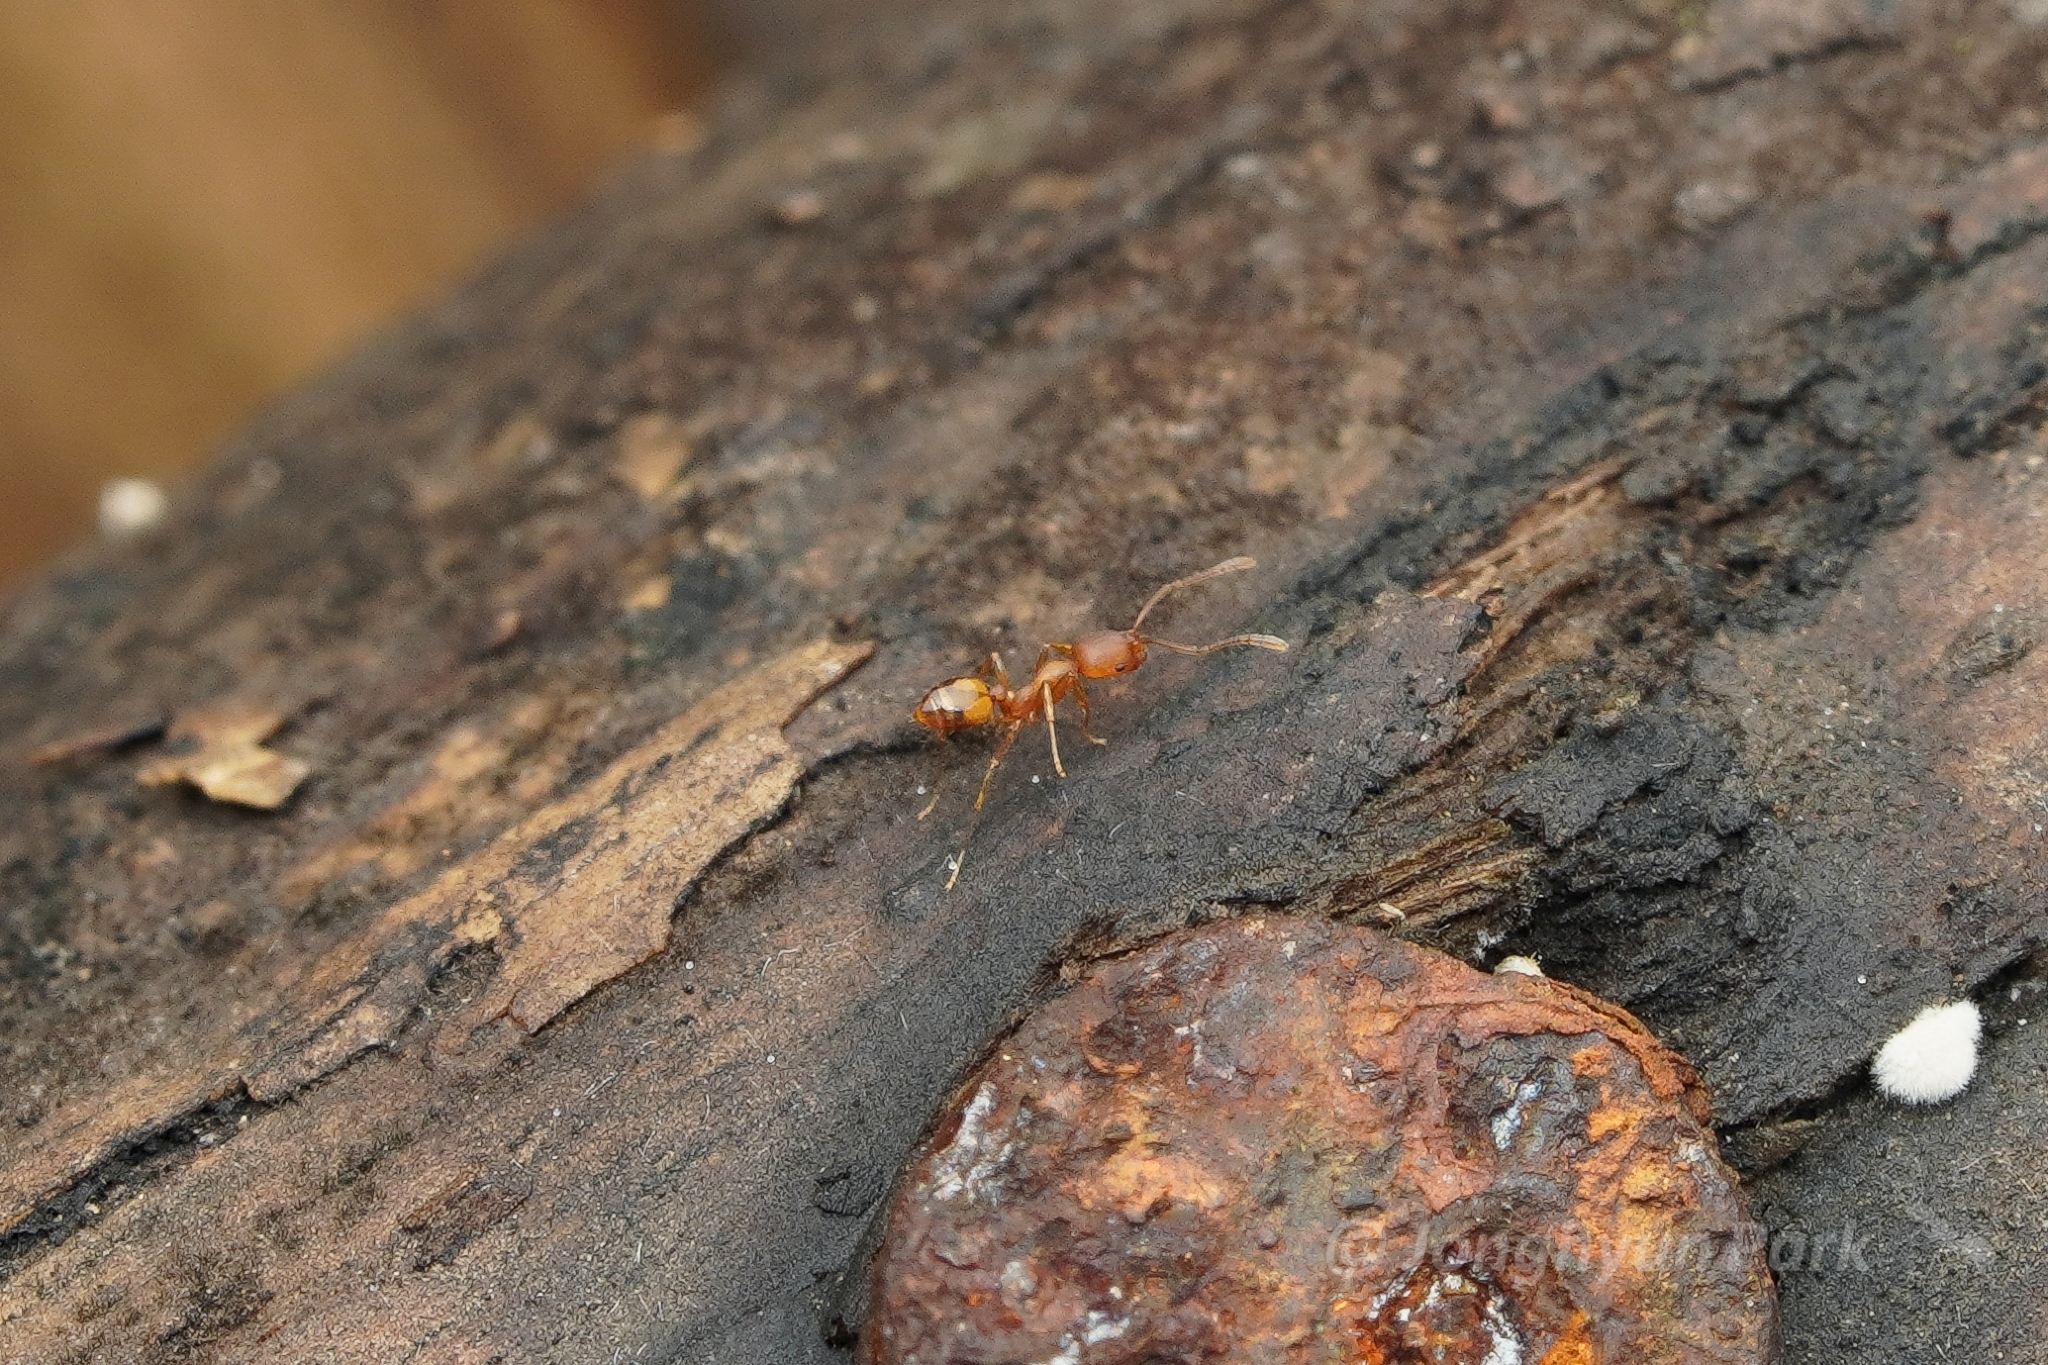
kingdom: Animalia
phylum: Arthropoda
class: Insecta
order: Hymenoptera
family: Formicidae
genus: Monomorium
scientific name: Monomorium pharaonis
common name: Pharaoh ant
